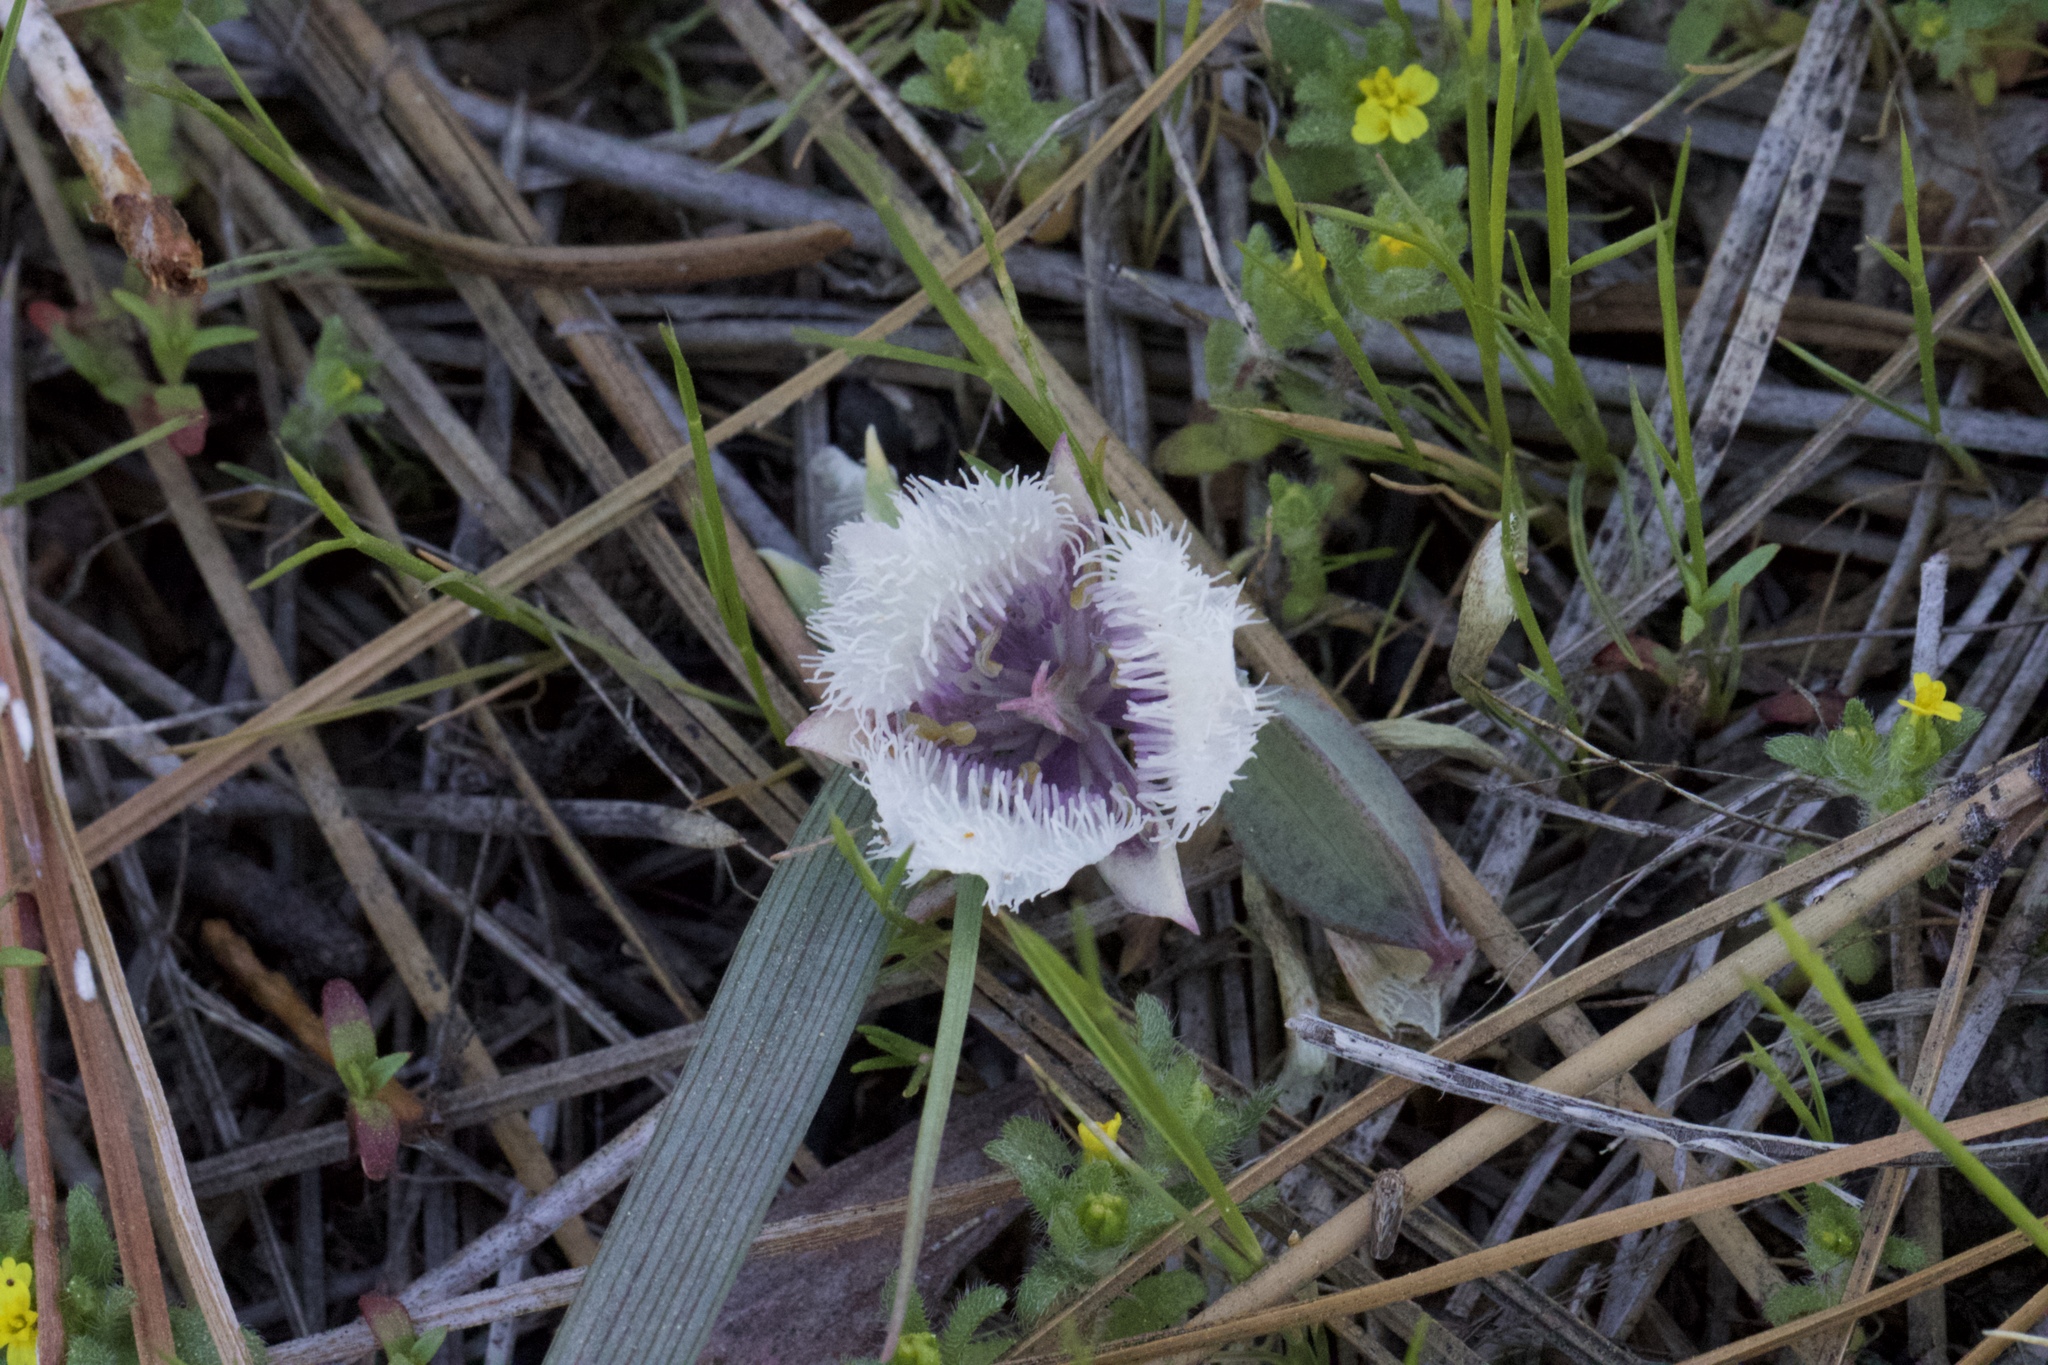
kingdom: Plantae
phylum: Tracheophyta
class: Liliopsida
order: Liliales
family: Liliaceae
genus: Calochortus
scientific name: Calochortus coeruleus
